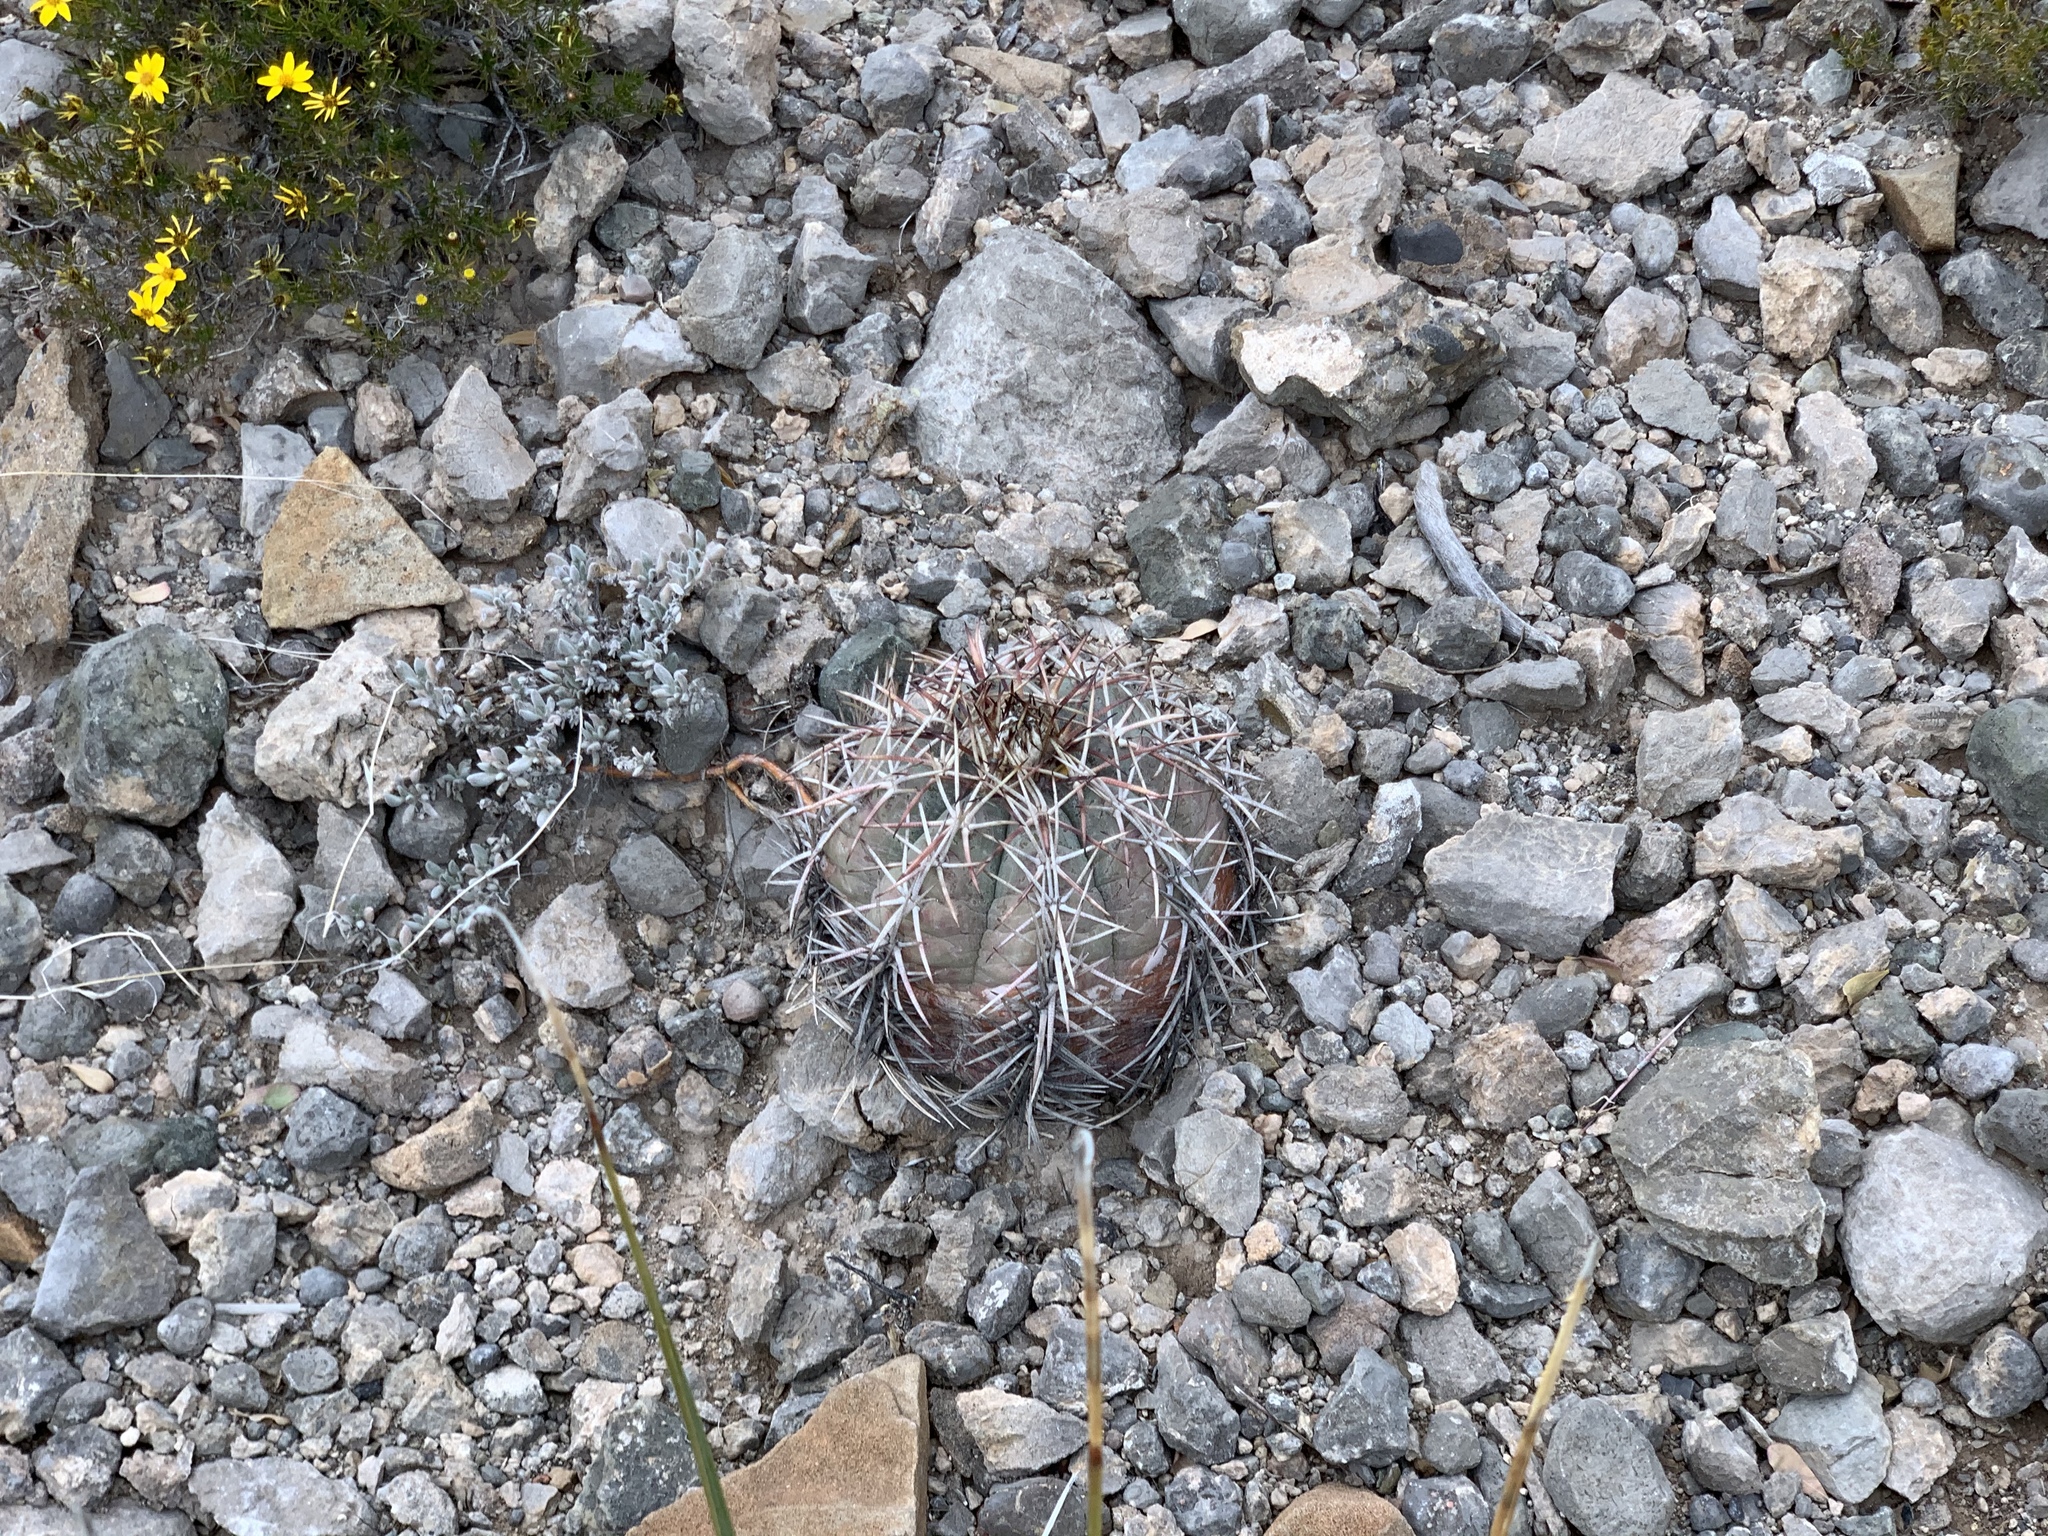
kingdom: Plantae
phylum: Tracheophyta
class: Magnoliopsida
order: Caryophyllales
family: Cactaceae
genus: Echinocactus
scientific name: Echinocactus horizonthalonius
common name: Devilshead
